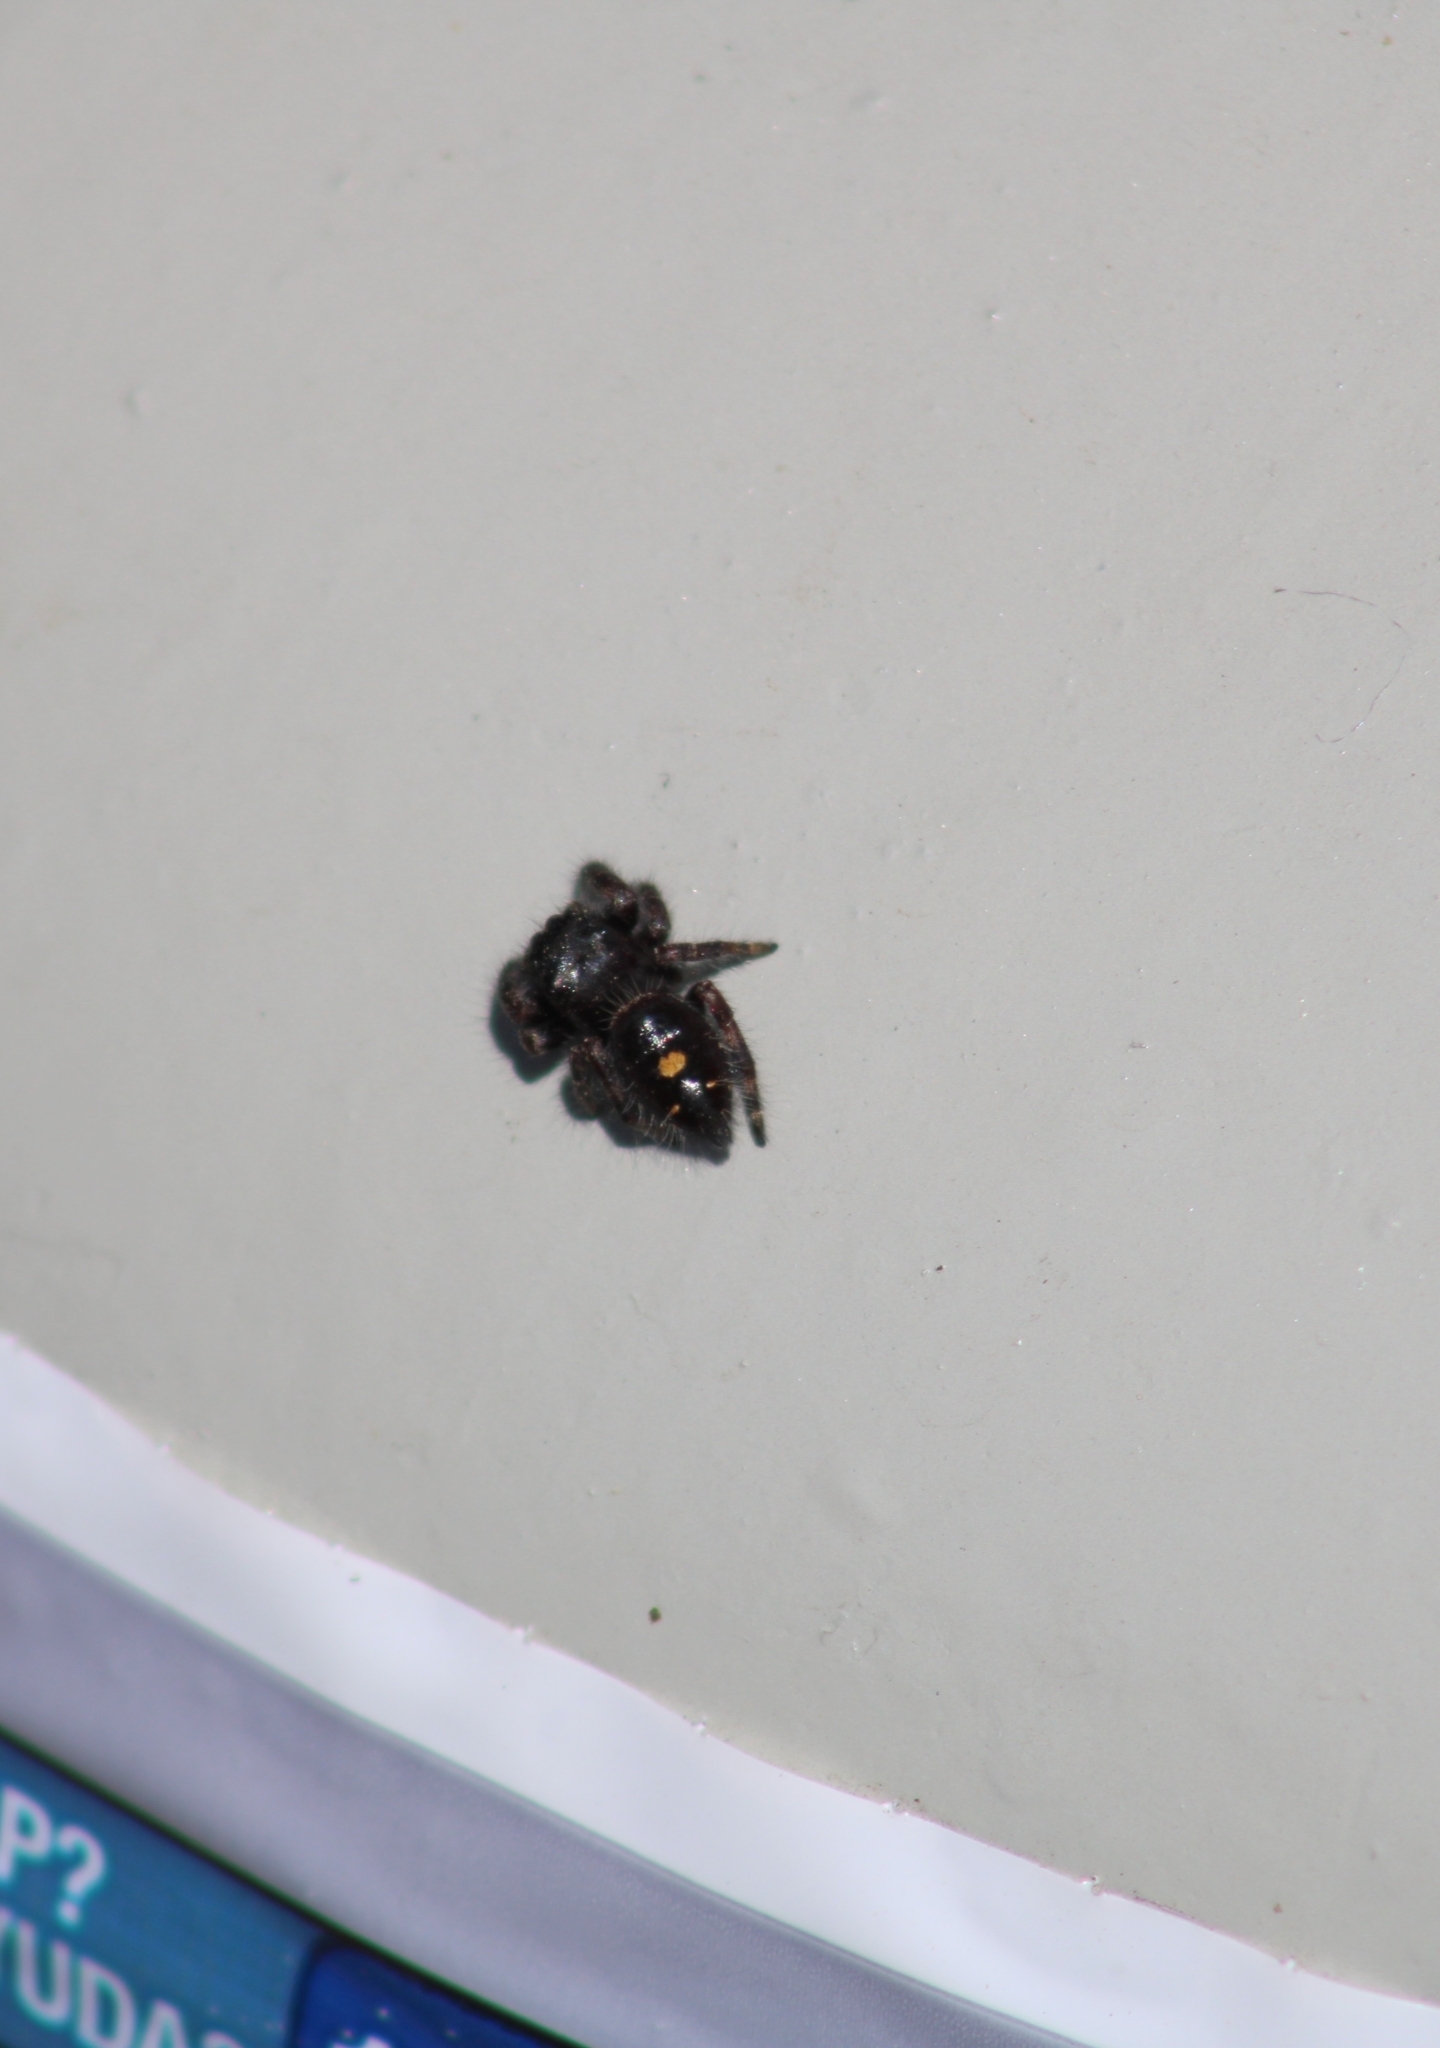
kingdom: Animalia
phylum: Arthropoda
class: Arachnida
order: Araneae
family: Salticidae
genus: Phidippus
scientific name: Phidippus audax
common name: Bold jumper
